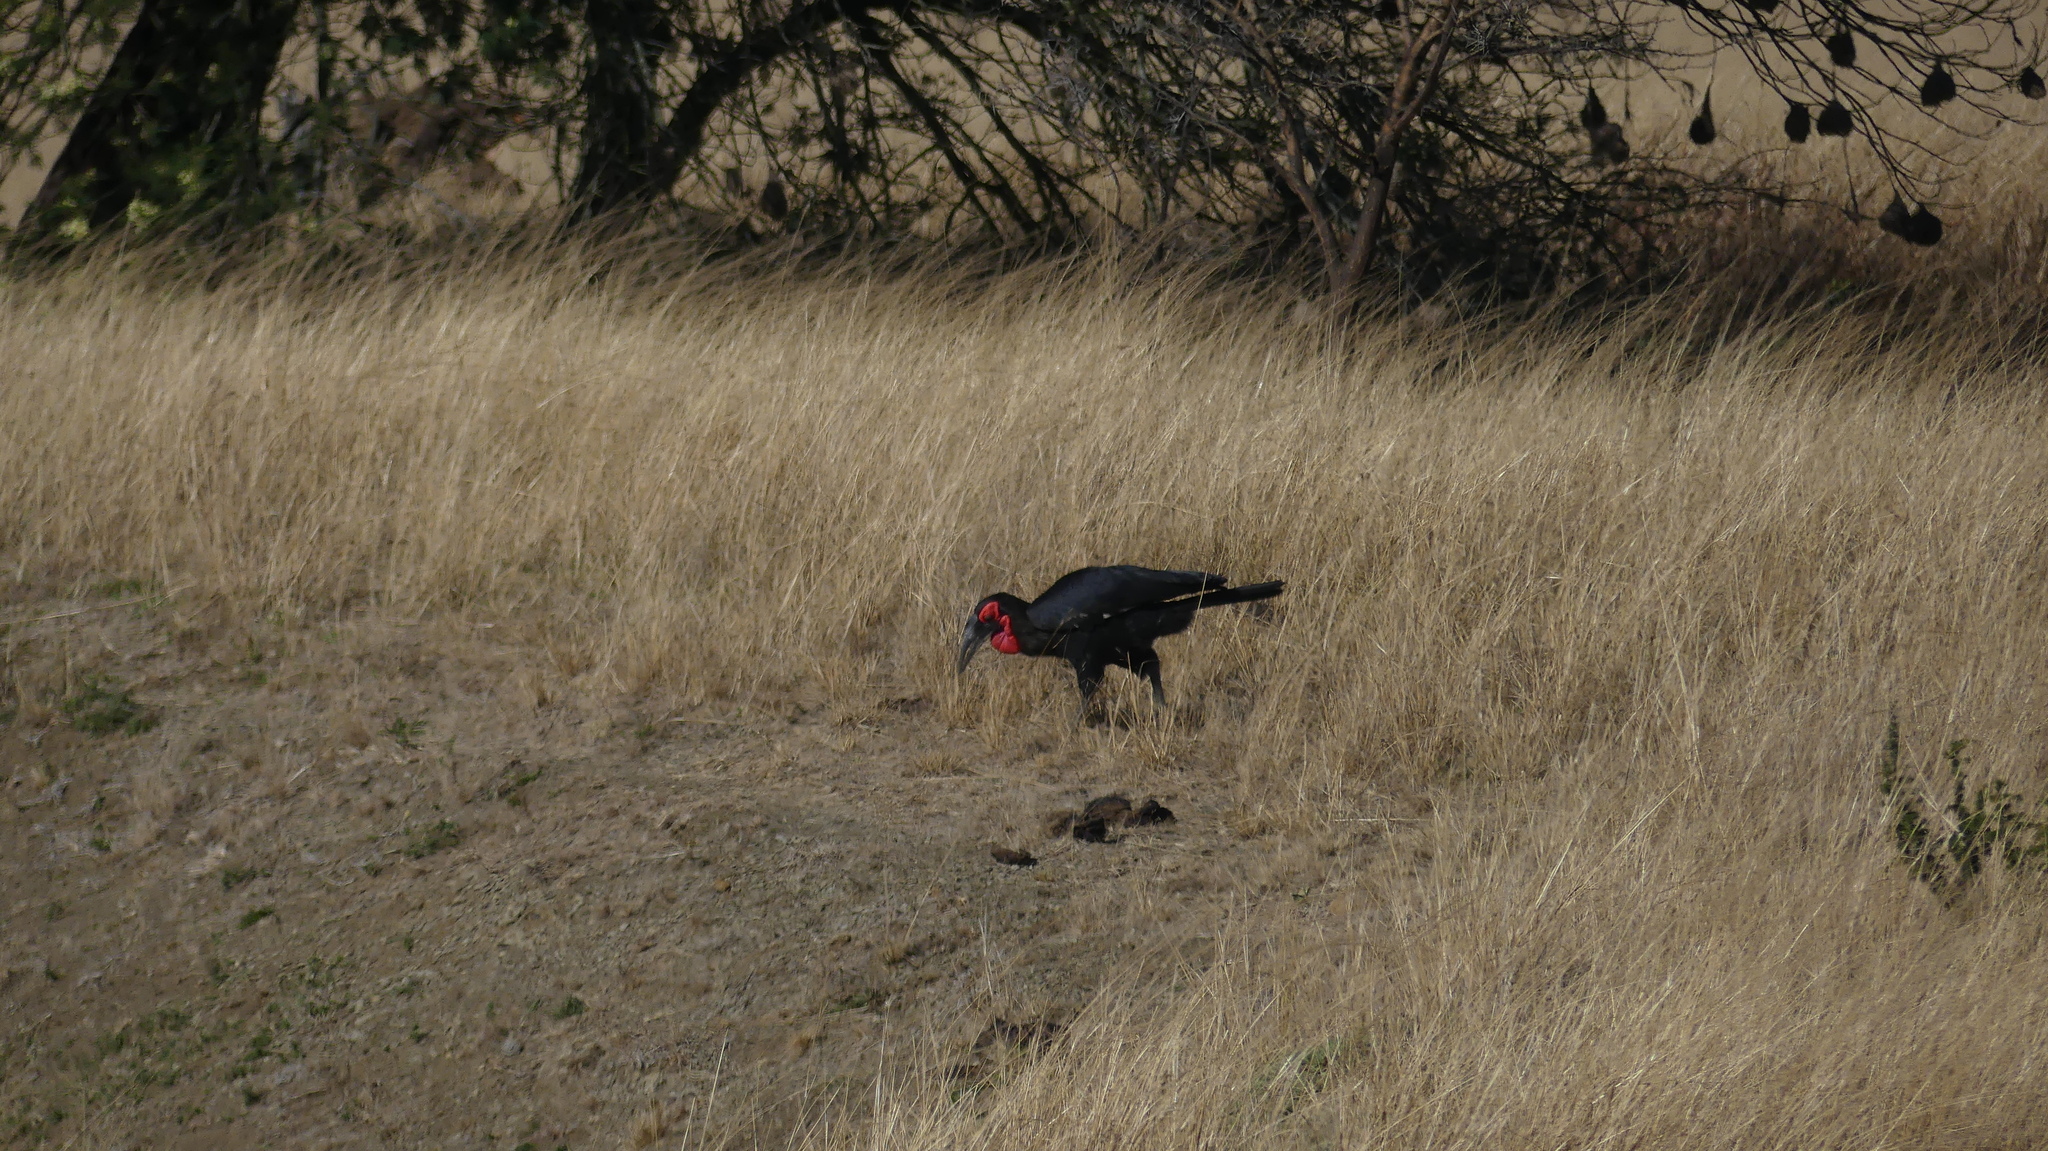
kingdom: Animalia
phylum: Chordata
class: Aves
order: Bucerotiformes
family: Bucorvidae
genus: Bucorvus
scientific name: Bucorvus leadbeateri
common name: Southern ground-hornbill
